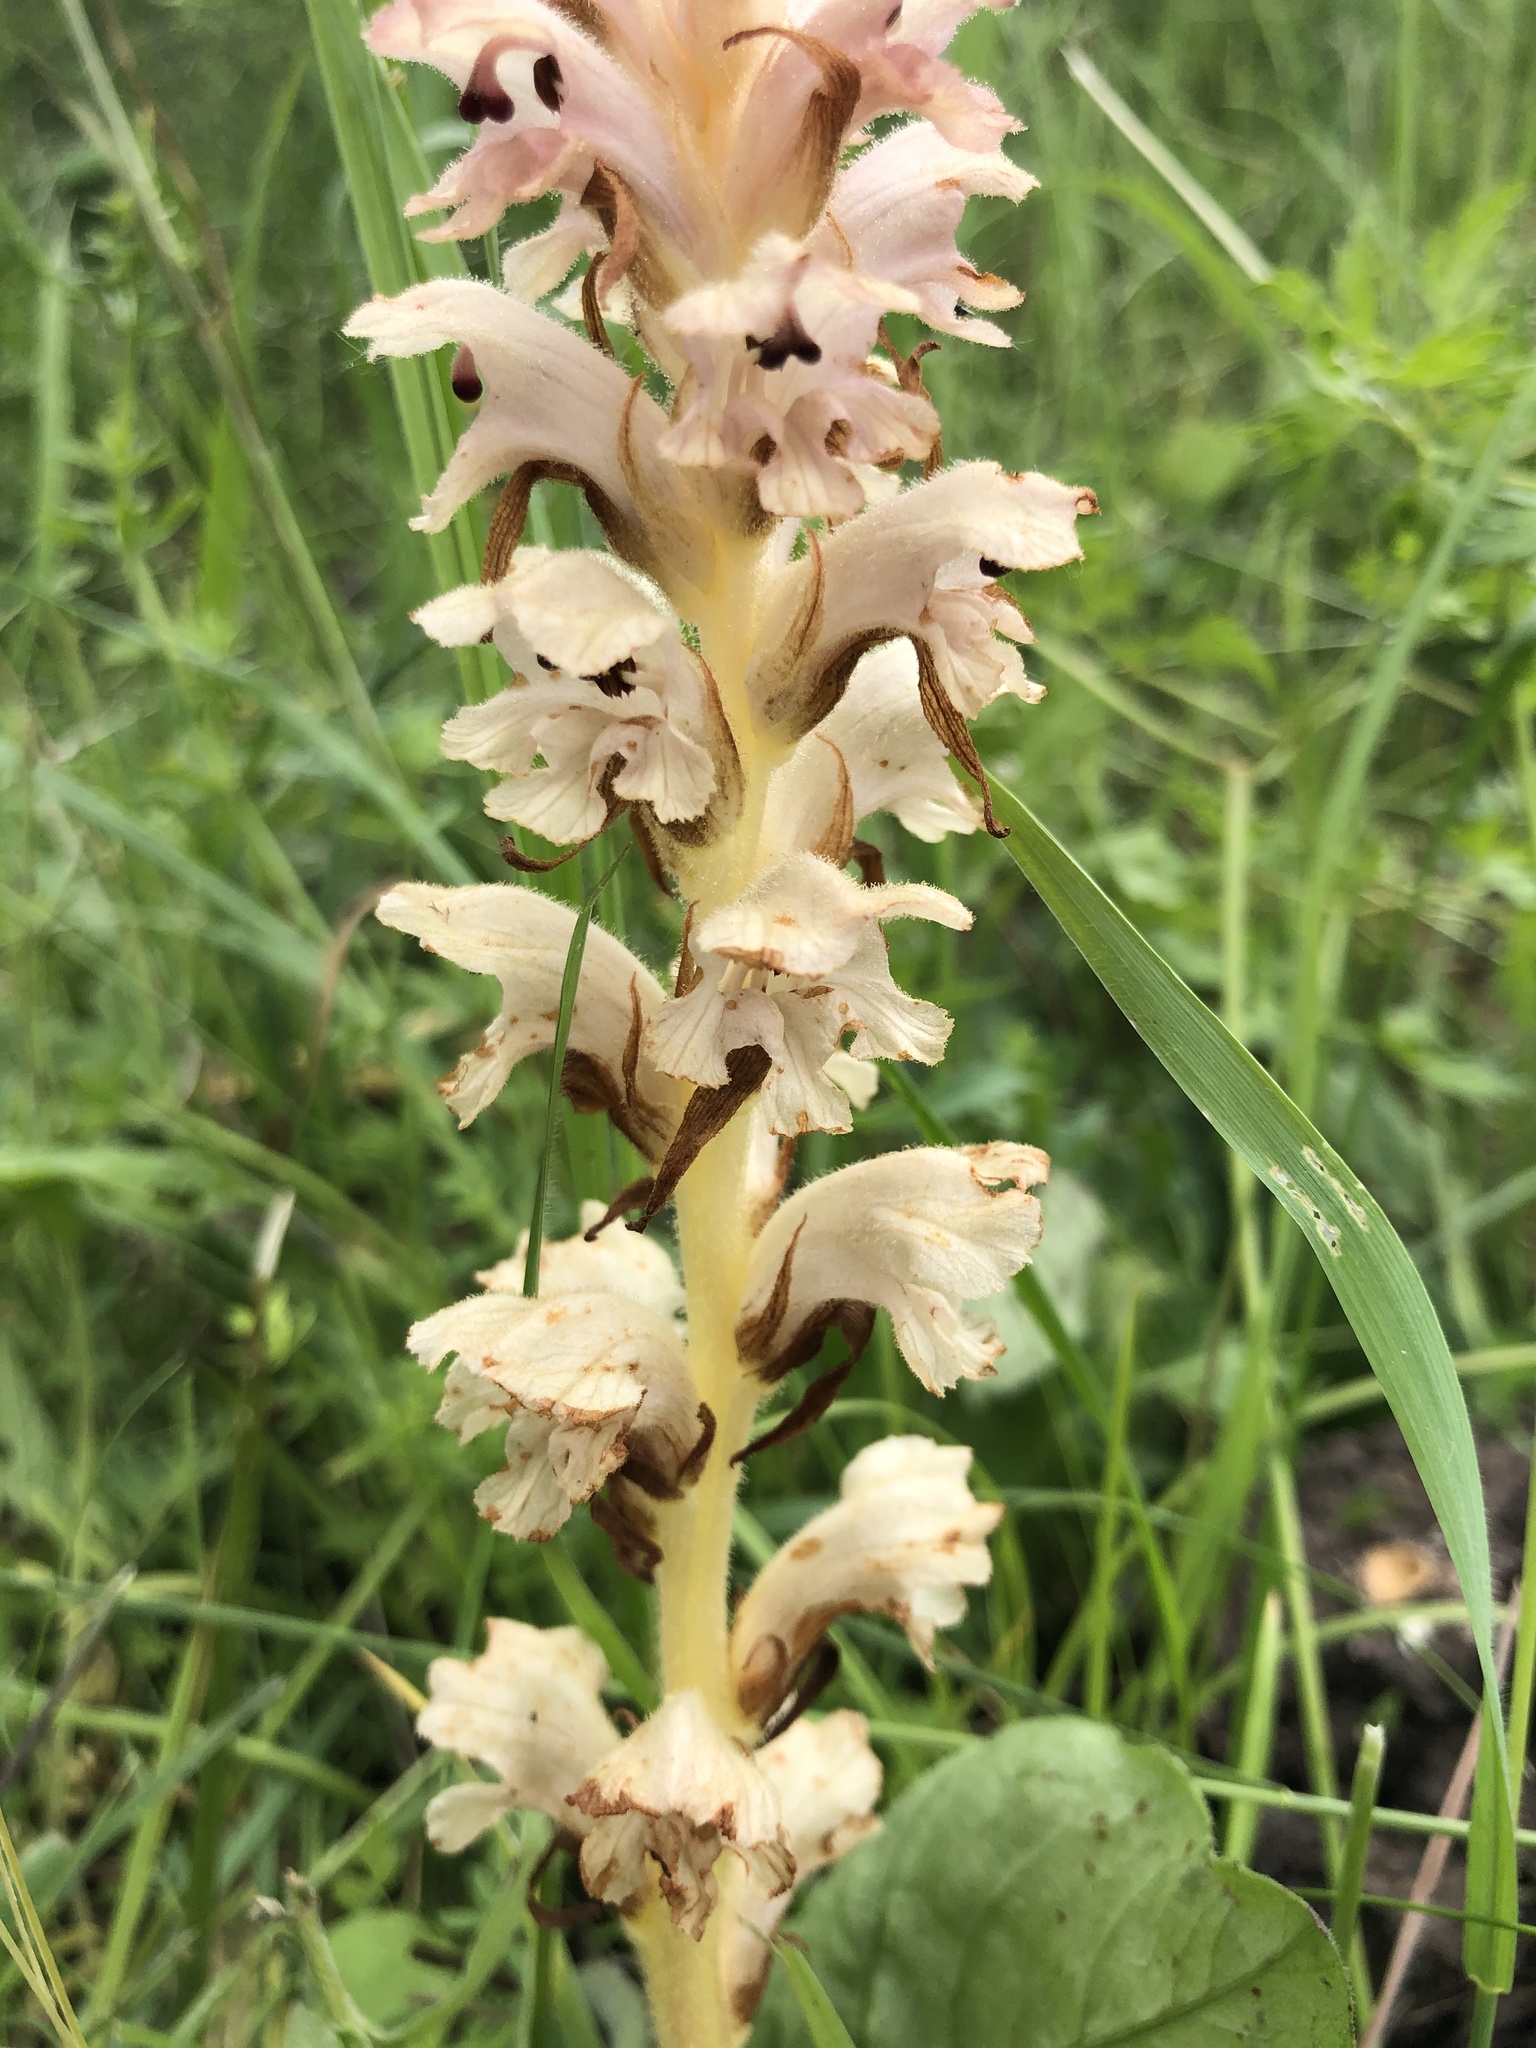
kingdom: Plantae
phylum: Tracheophyta
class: Magnoliopsida
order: Lamiales
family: Orobanchaceae
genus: Orobanche
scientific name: Orobanche caryophyllacea
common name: Bedstraw broomrape
